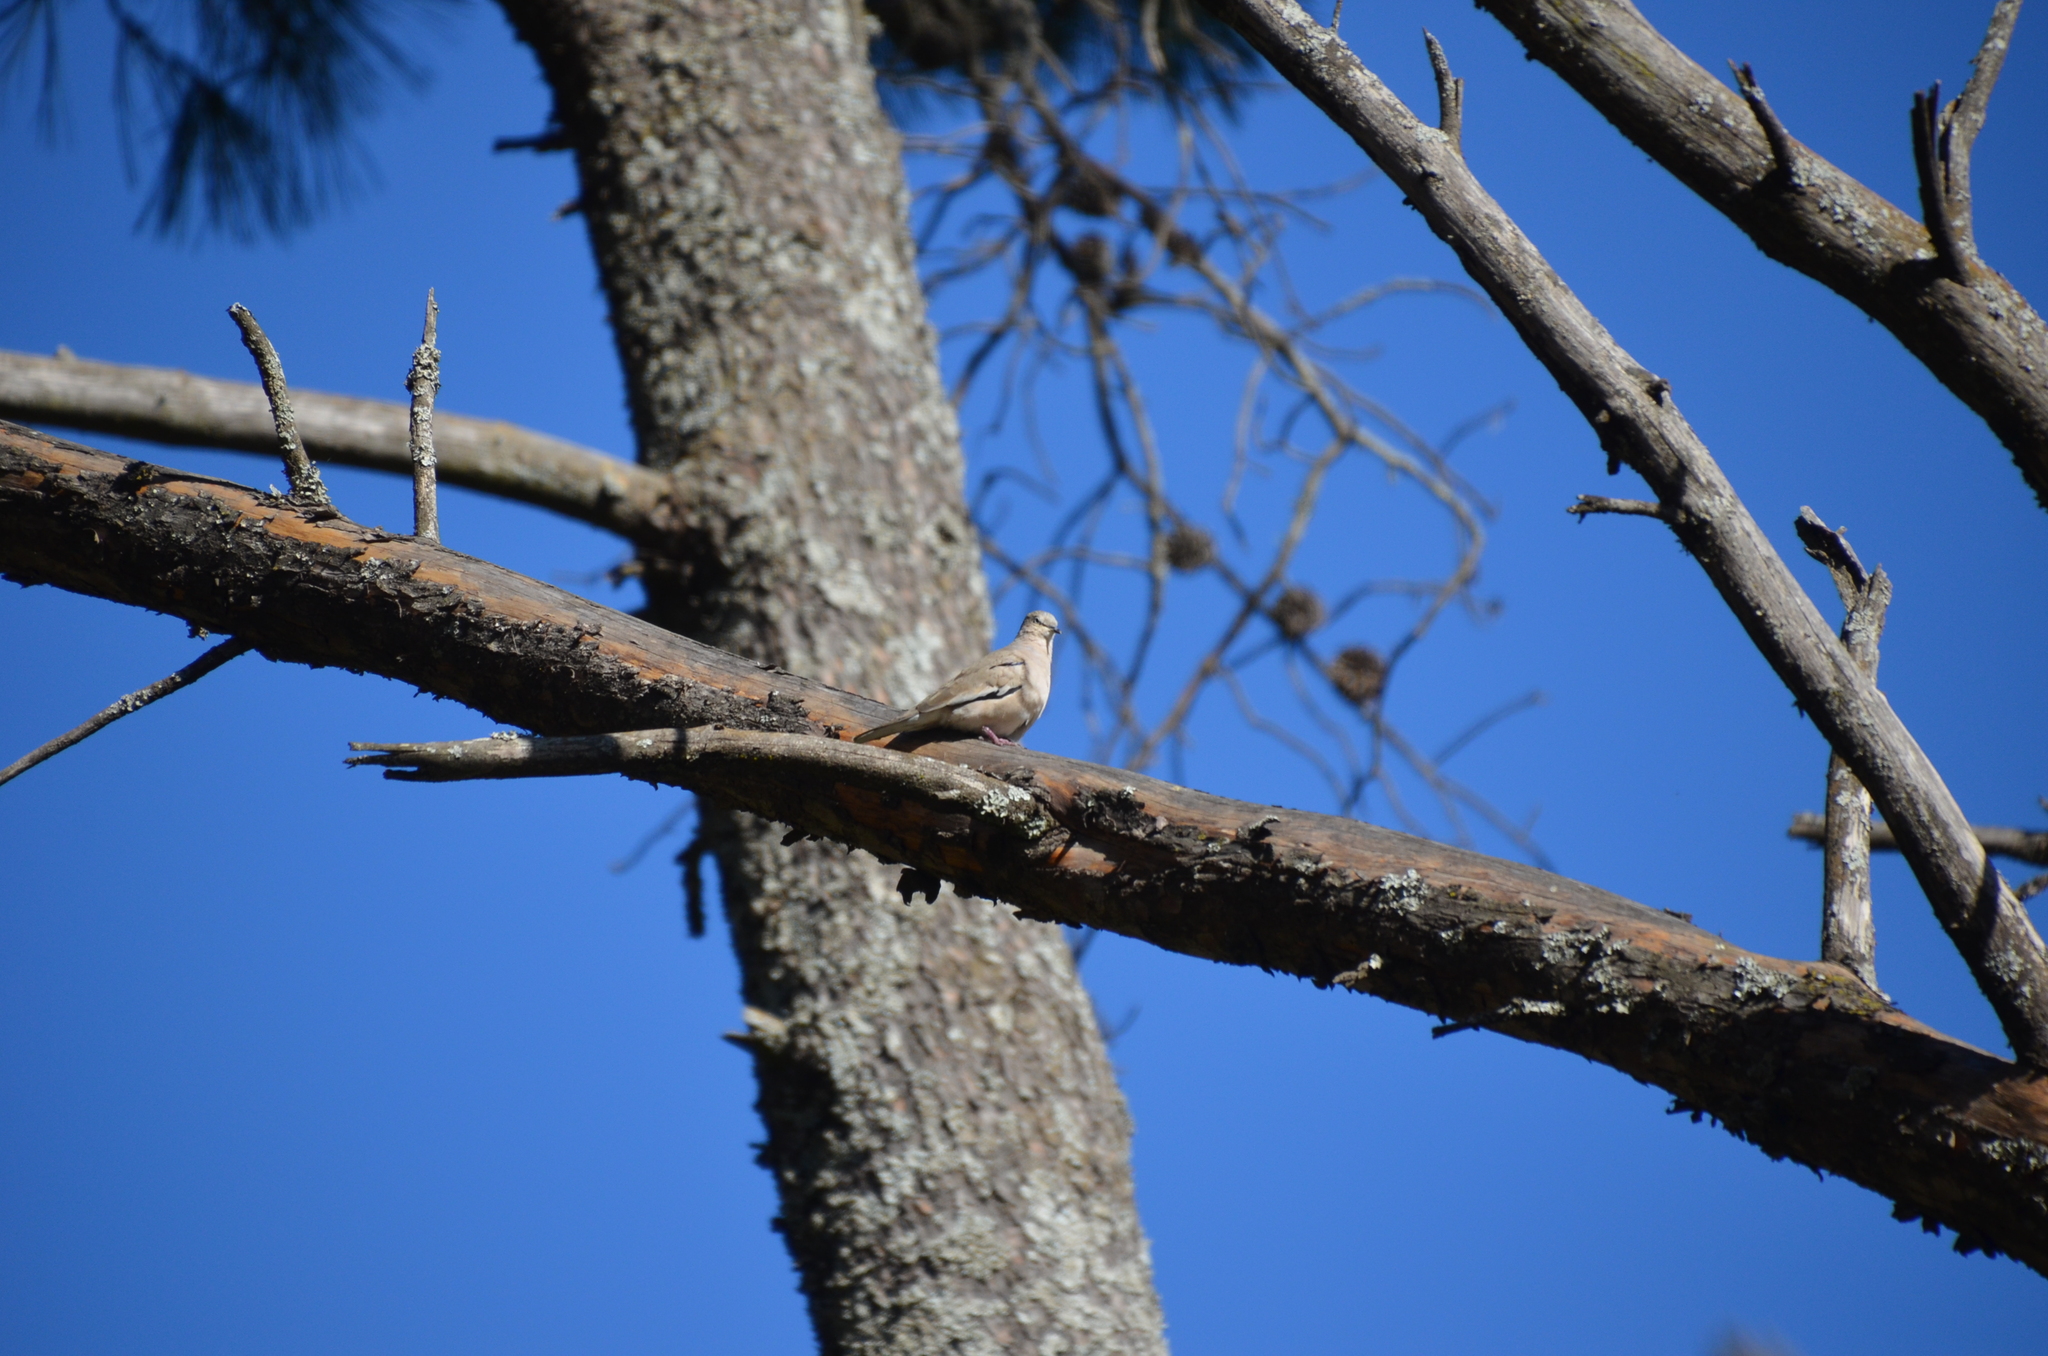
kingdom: Animalia
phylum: Chordata
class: Aves
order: Columbiformes
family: Columbidae
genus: Columbina
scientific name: Columbina picui
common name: Picui ground dove
